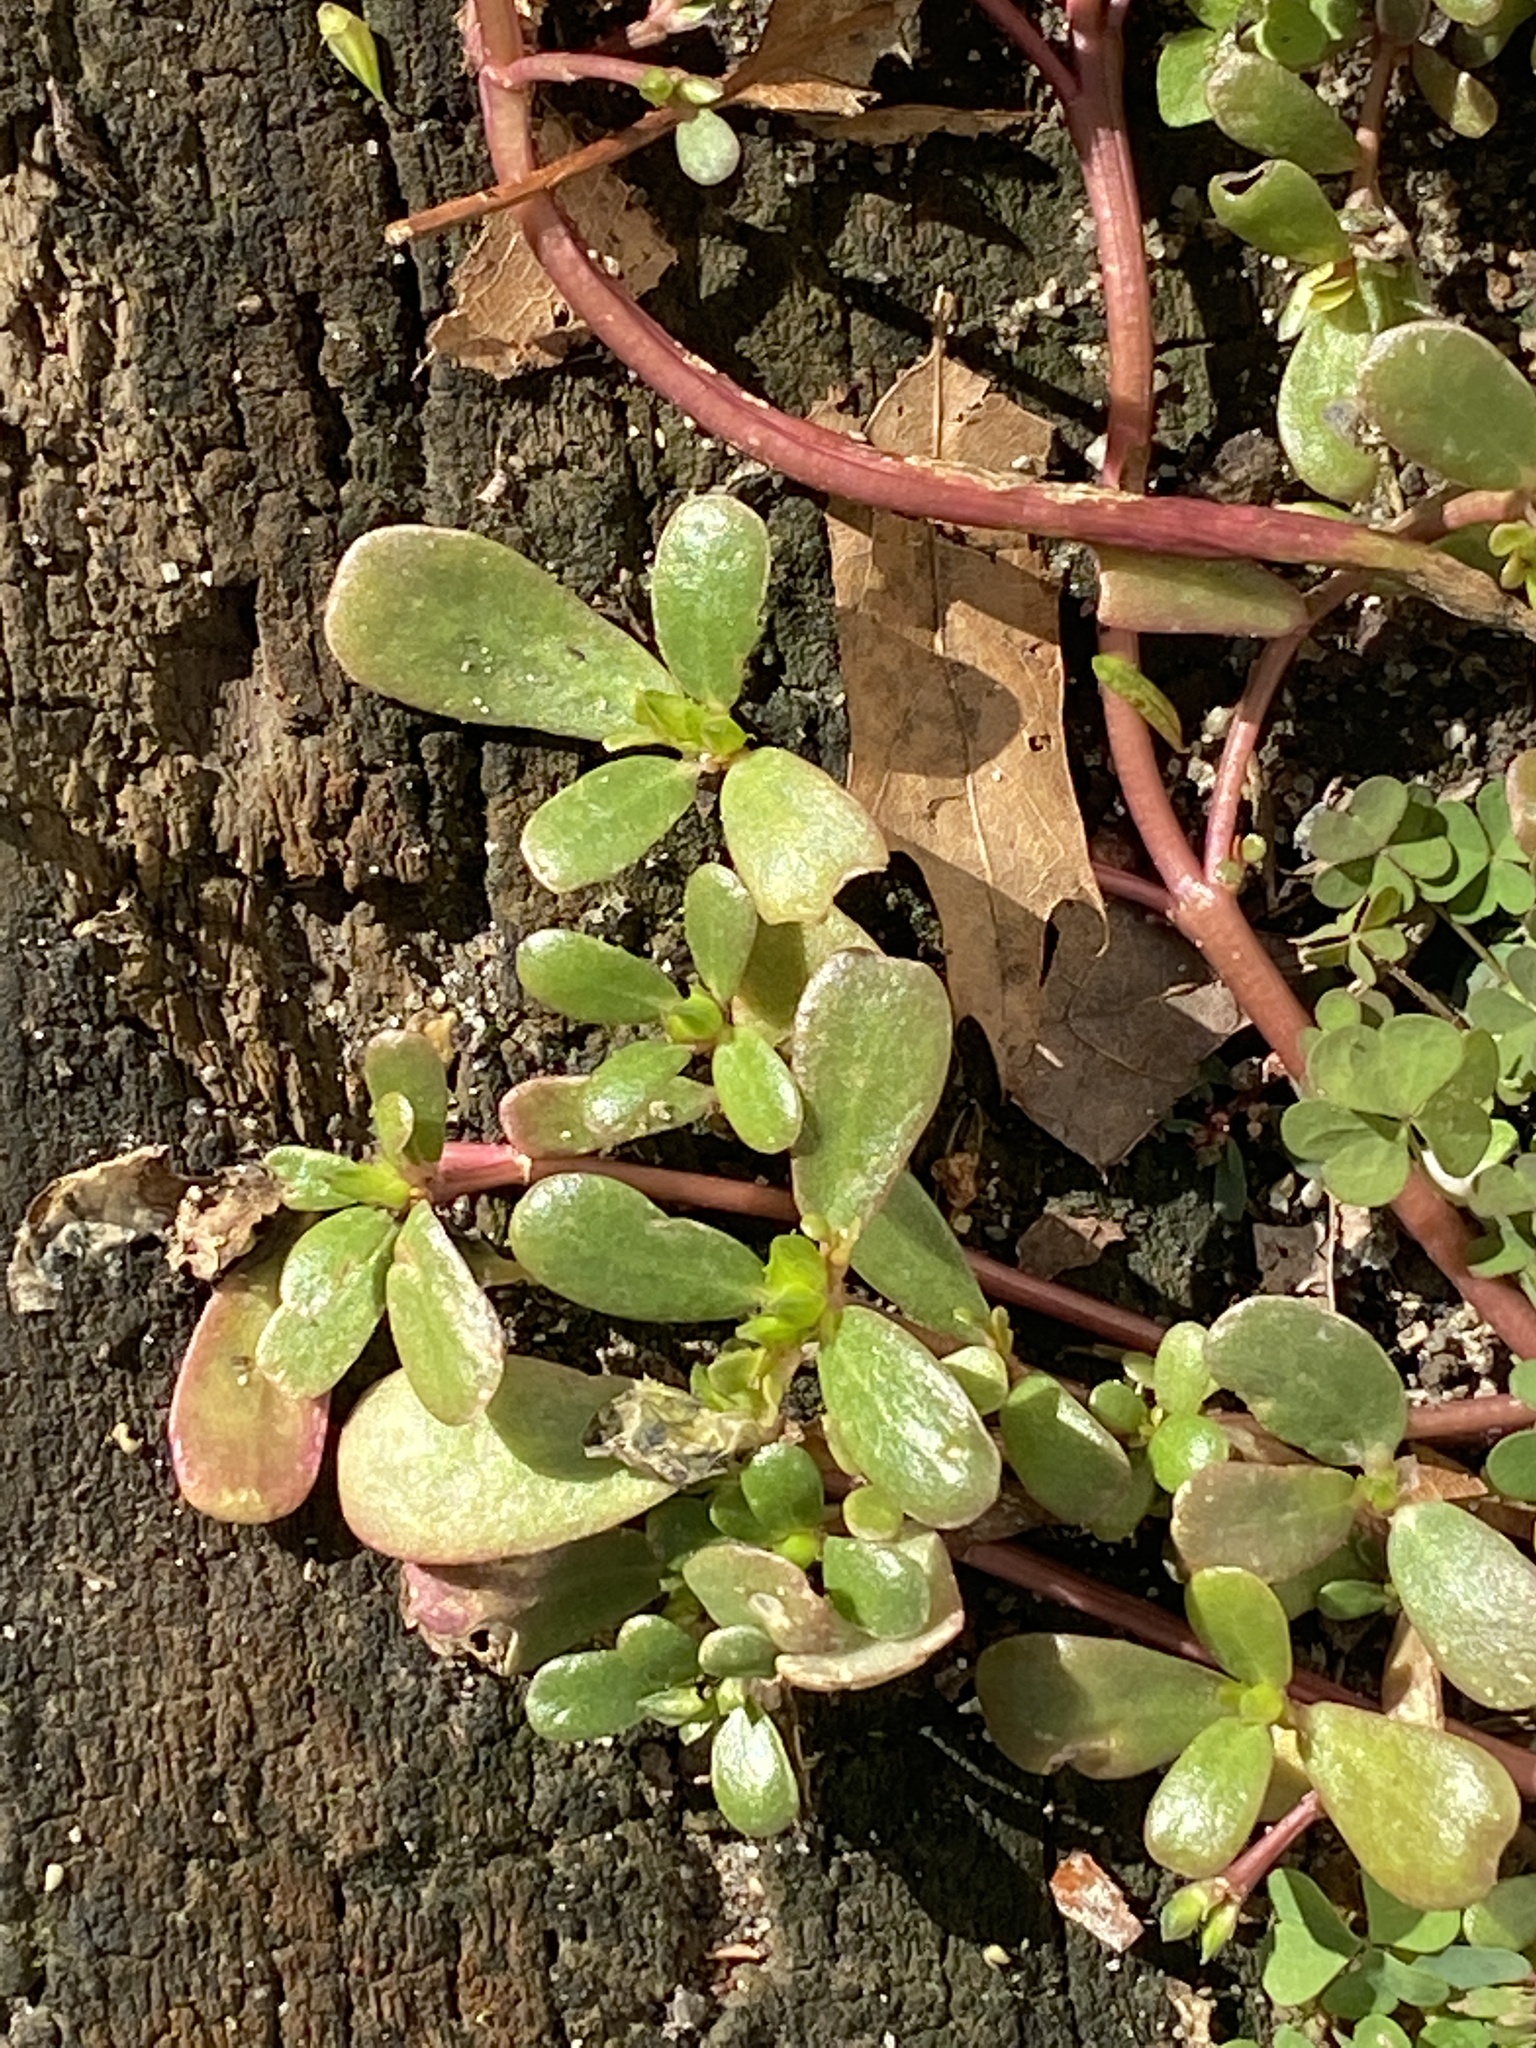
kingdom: Plantae
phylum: Tracheophyta
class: Magnoliopsida
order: Caryophyllales
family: Portulacaceae
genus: Portulaca
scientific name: Portulaca oleracea
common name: Common purslane
